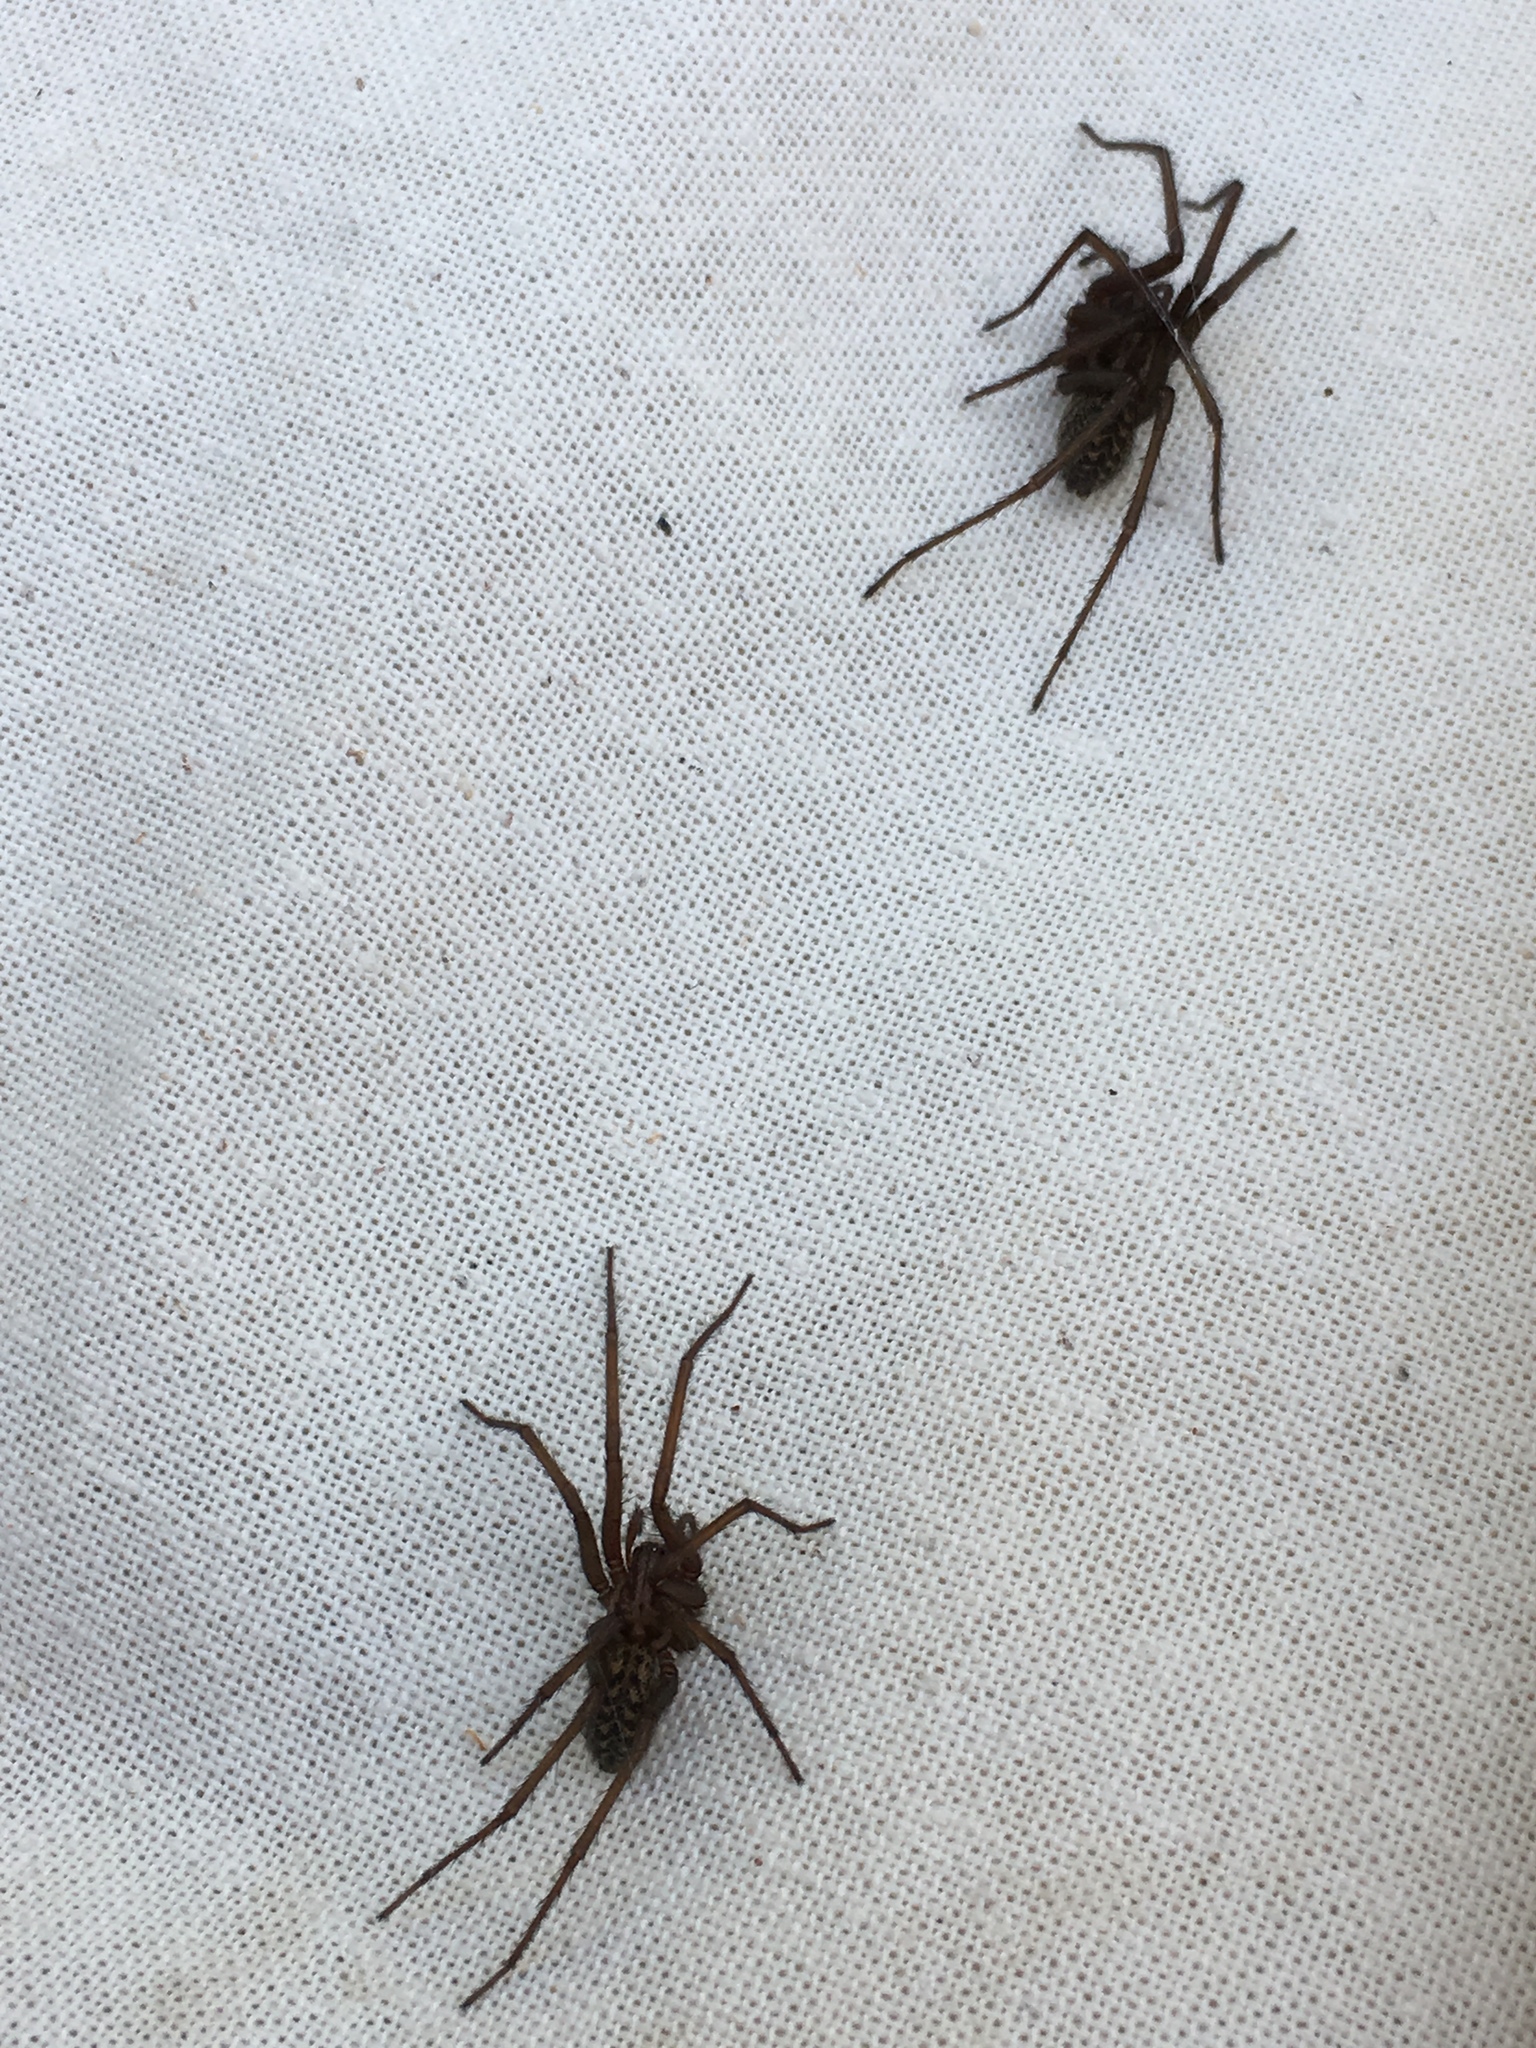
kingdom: Animalia
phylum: Arthropoda
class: Arachnida
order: Araneae
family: Agelenidae
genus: Eratigena
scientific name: Eratigena atrica
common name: Giant house spider
